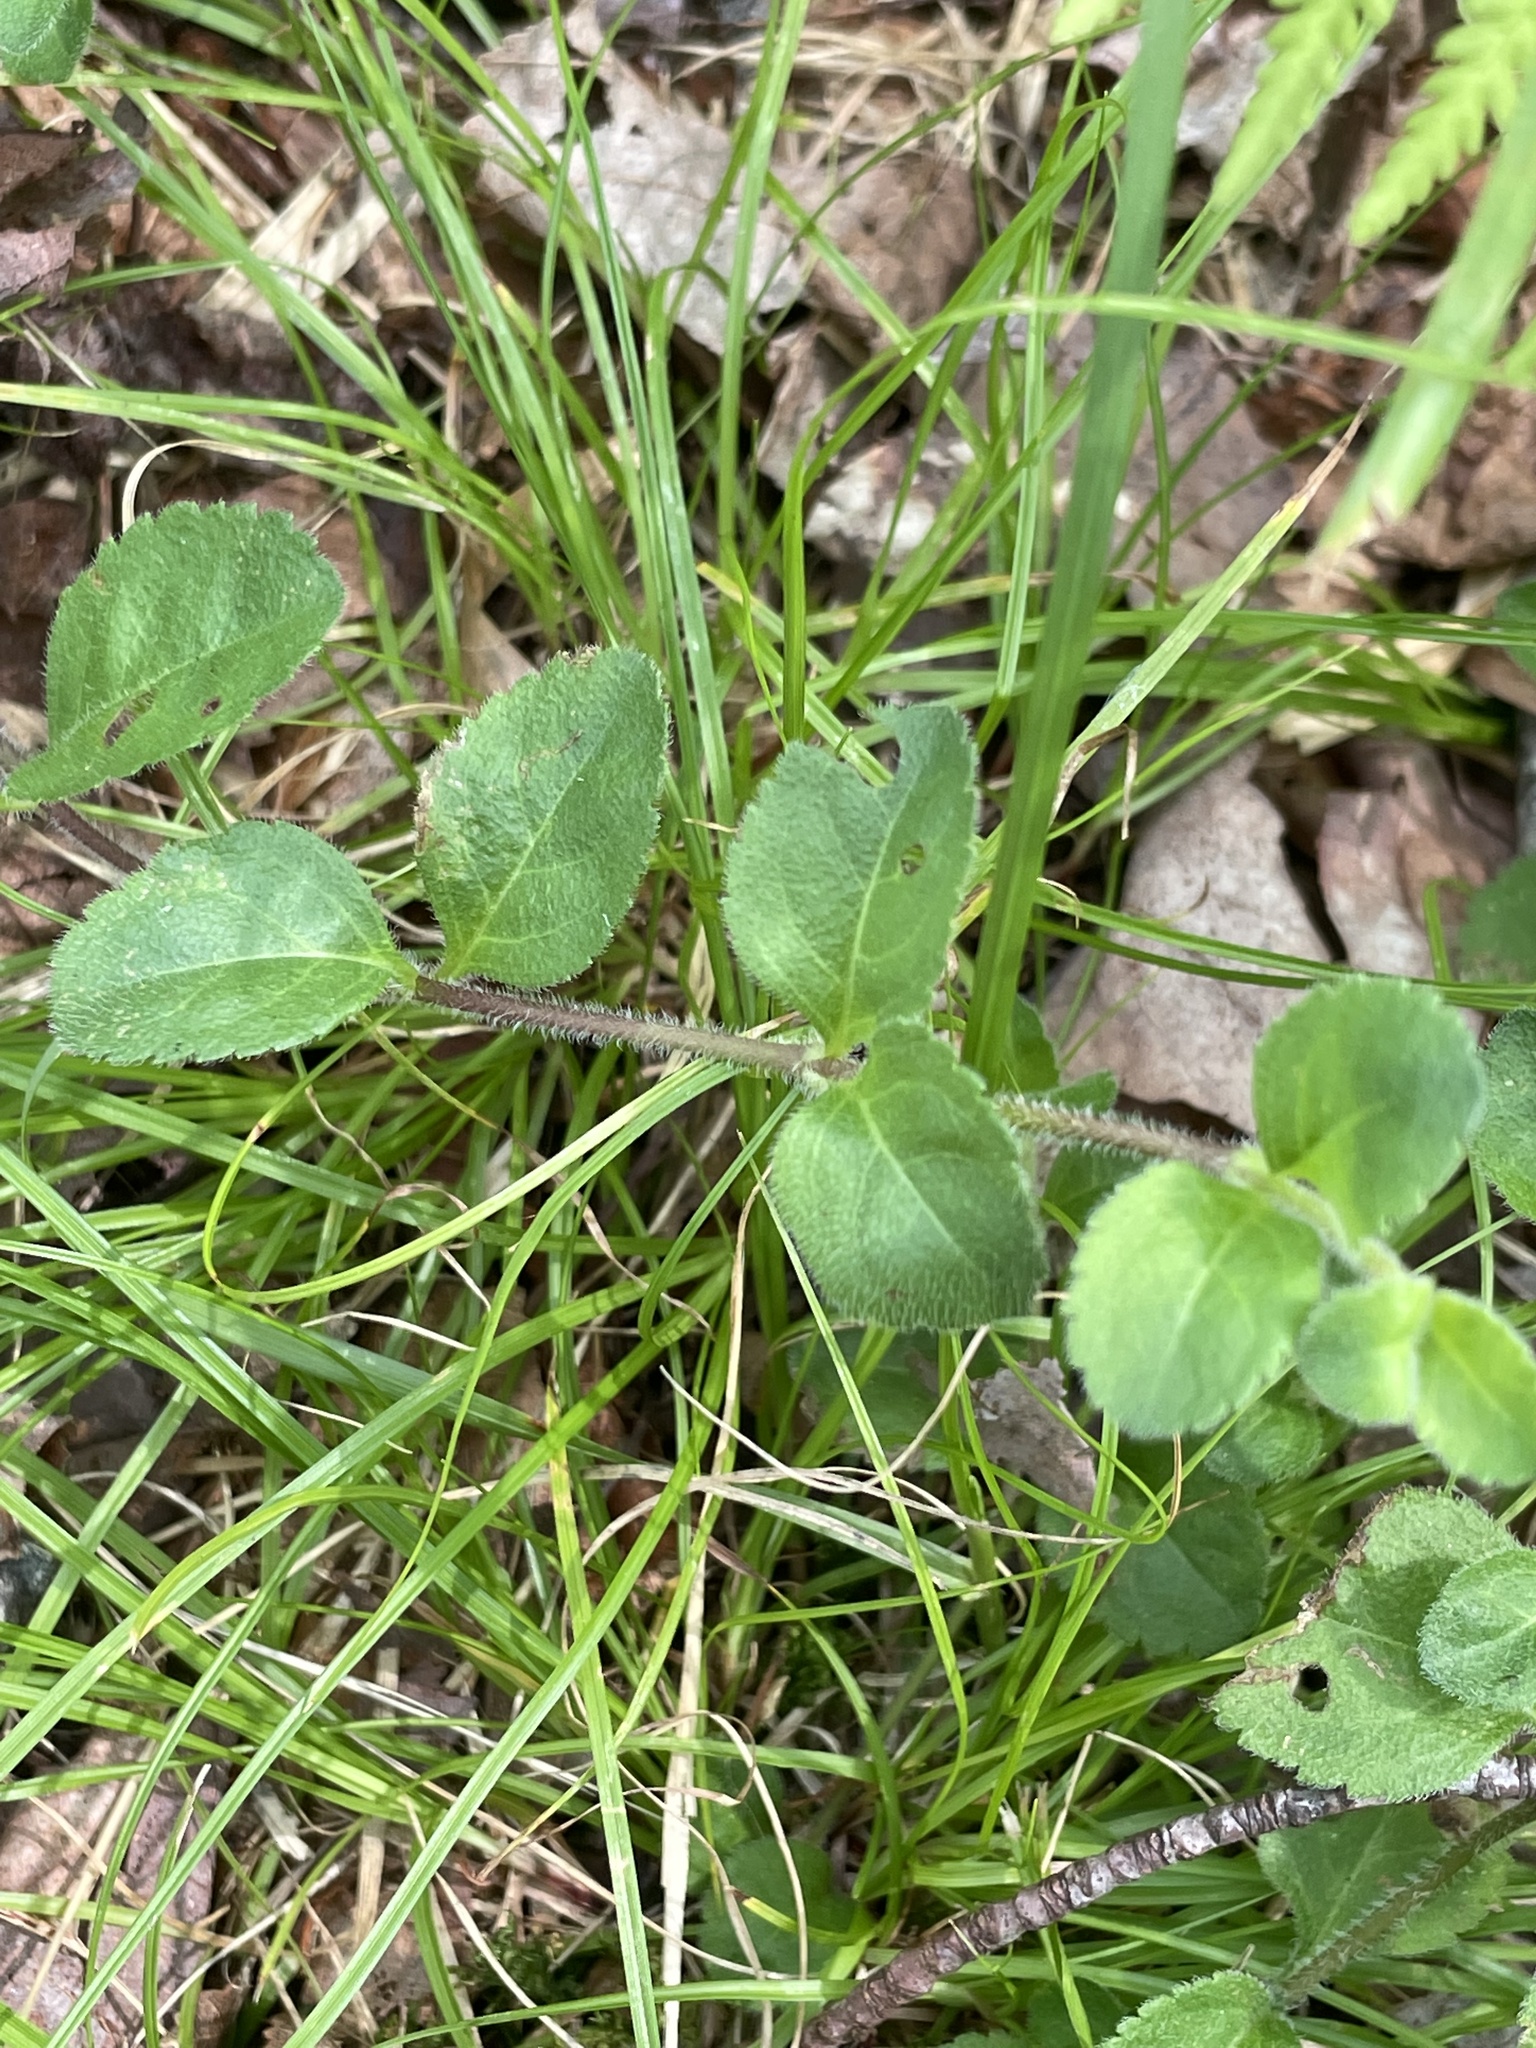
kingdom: Plantae
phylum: Tracheophyta
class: Magnoliopsida
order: Lamiales
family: Plantaginaceae
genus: Veronica
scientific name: Veronica officinalis
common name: Common speedwell
